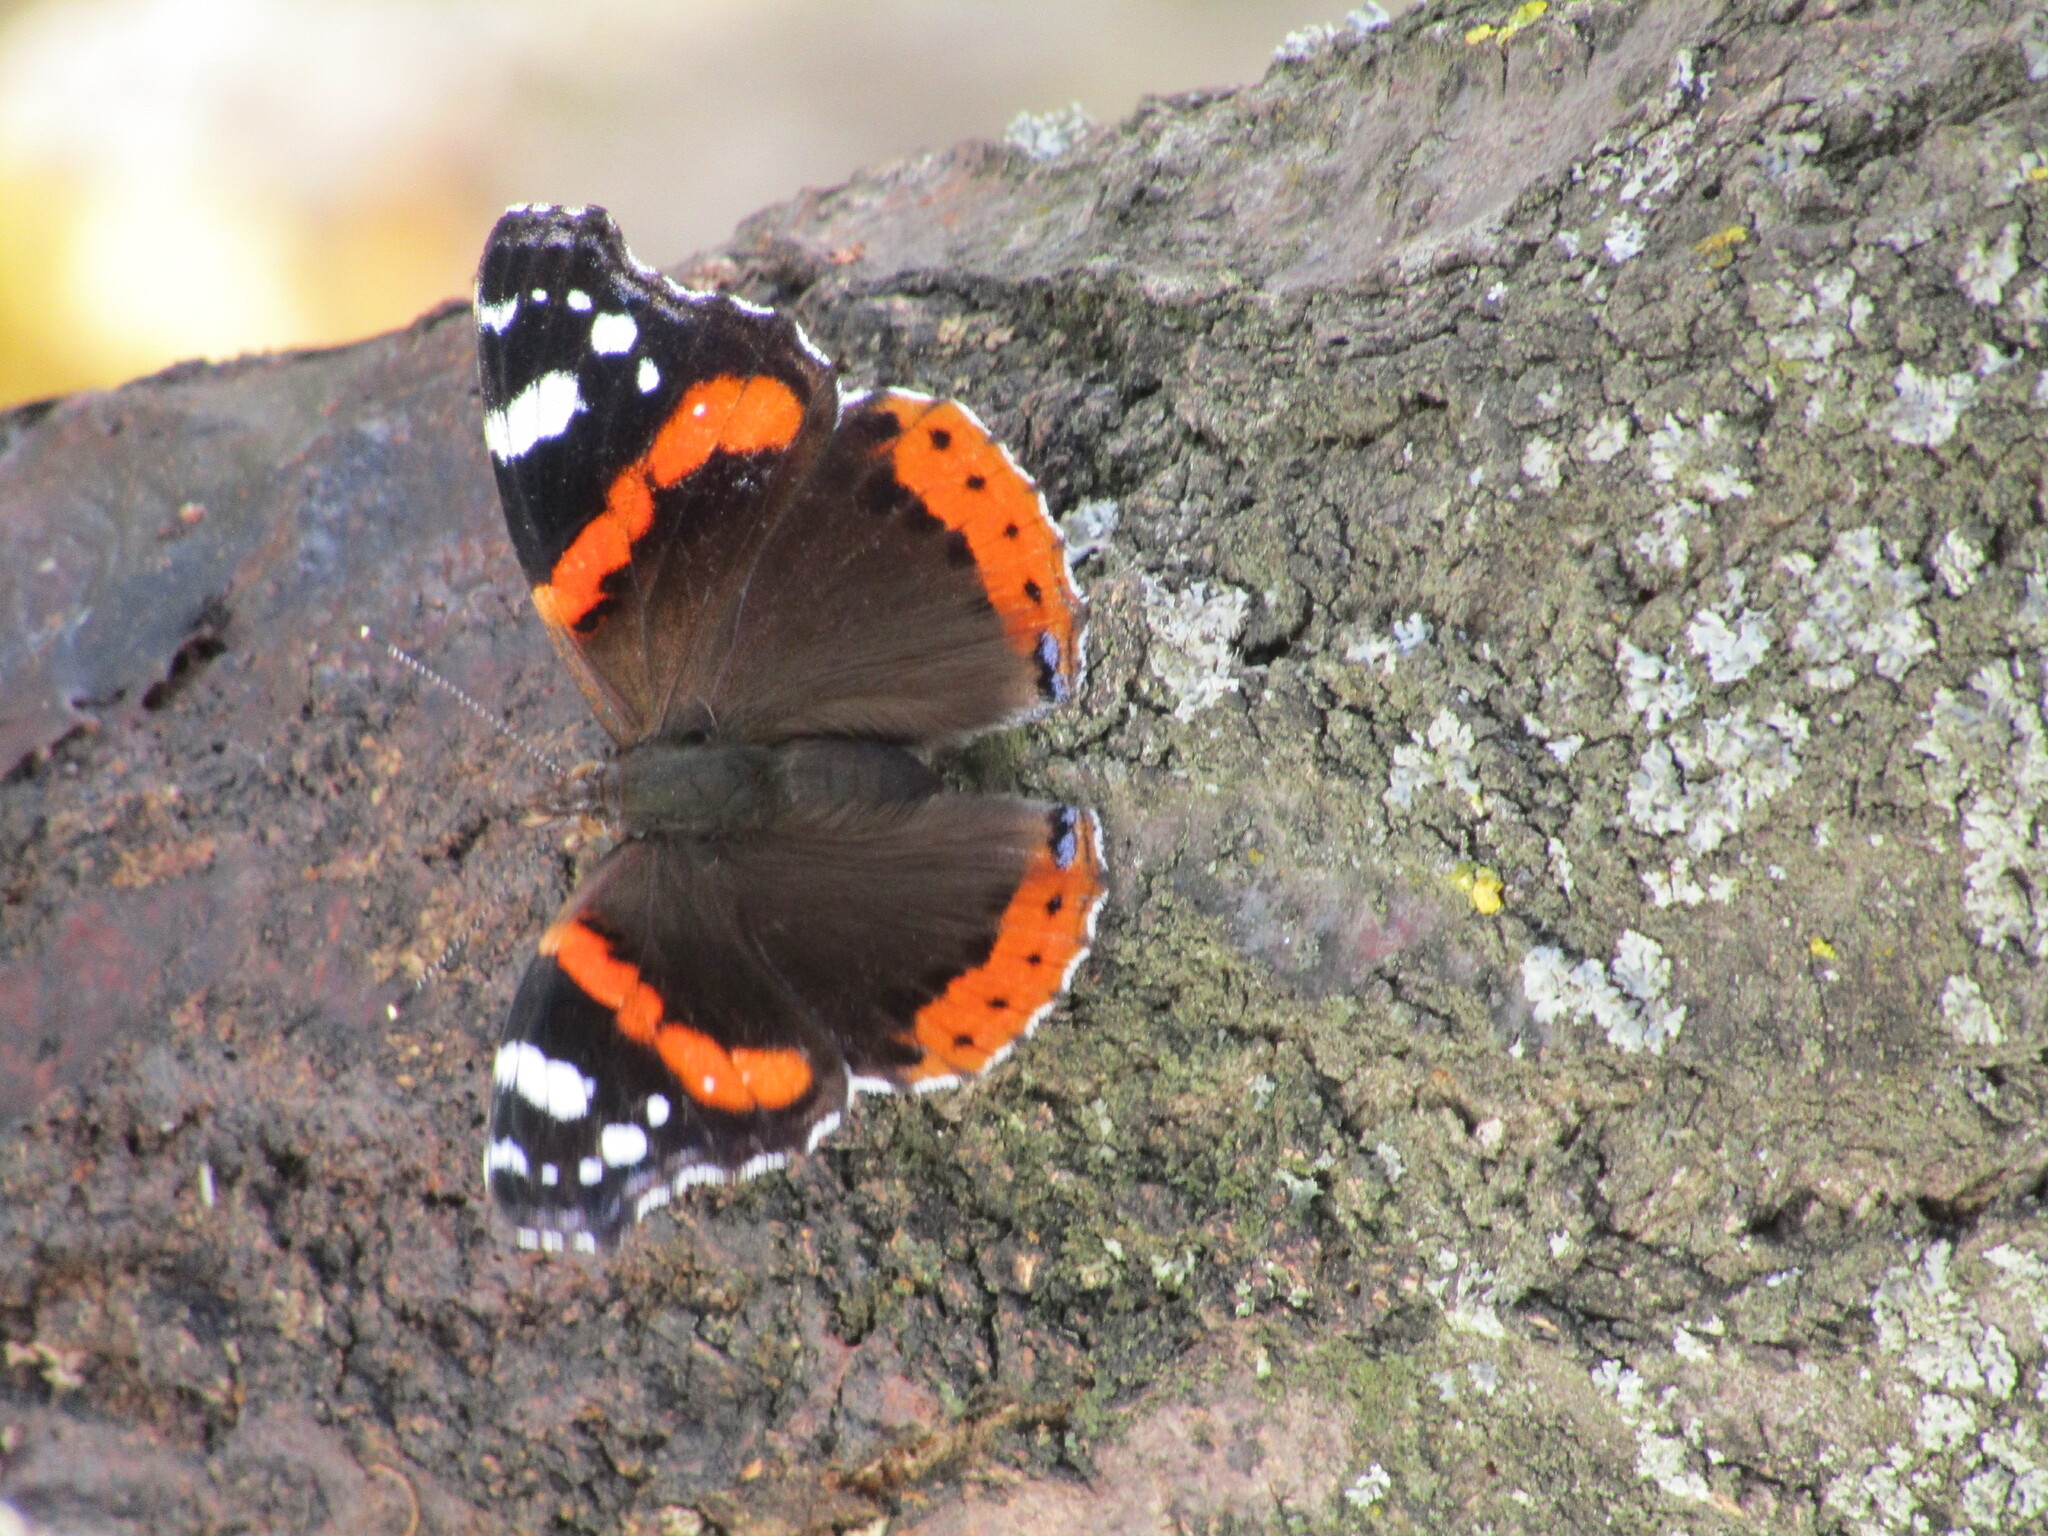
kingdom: Animalia
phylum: Arthropoda
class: Insecta
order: Lepidoptera
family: Nymphalidae
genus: Vanessa
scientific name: Vanessa atalanta
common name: Red admiral
